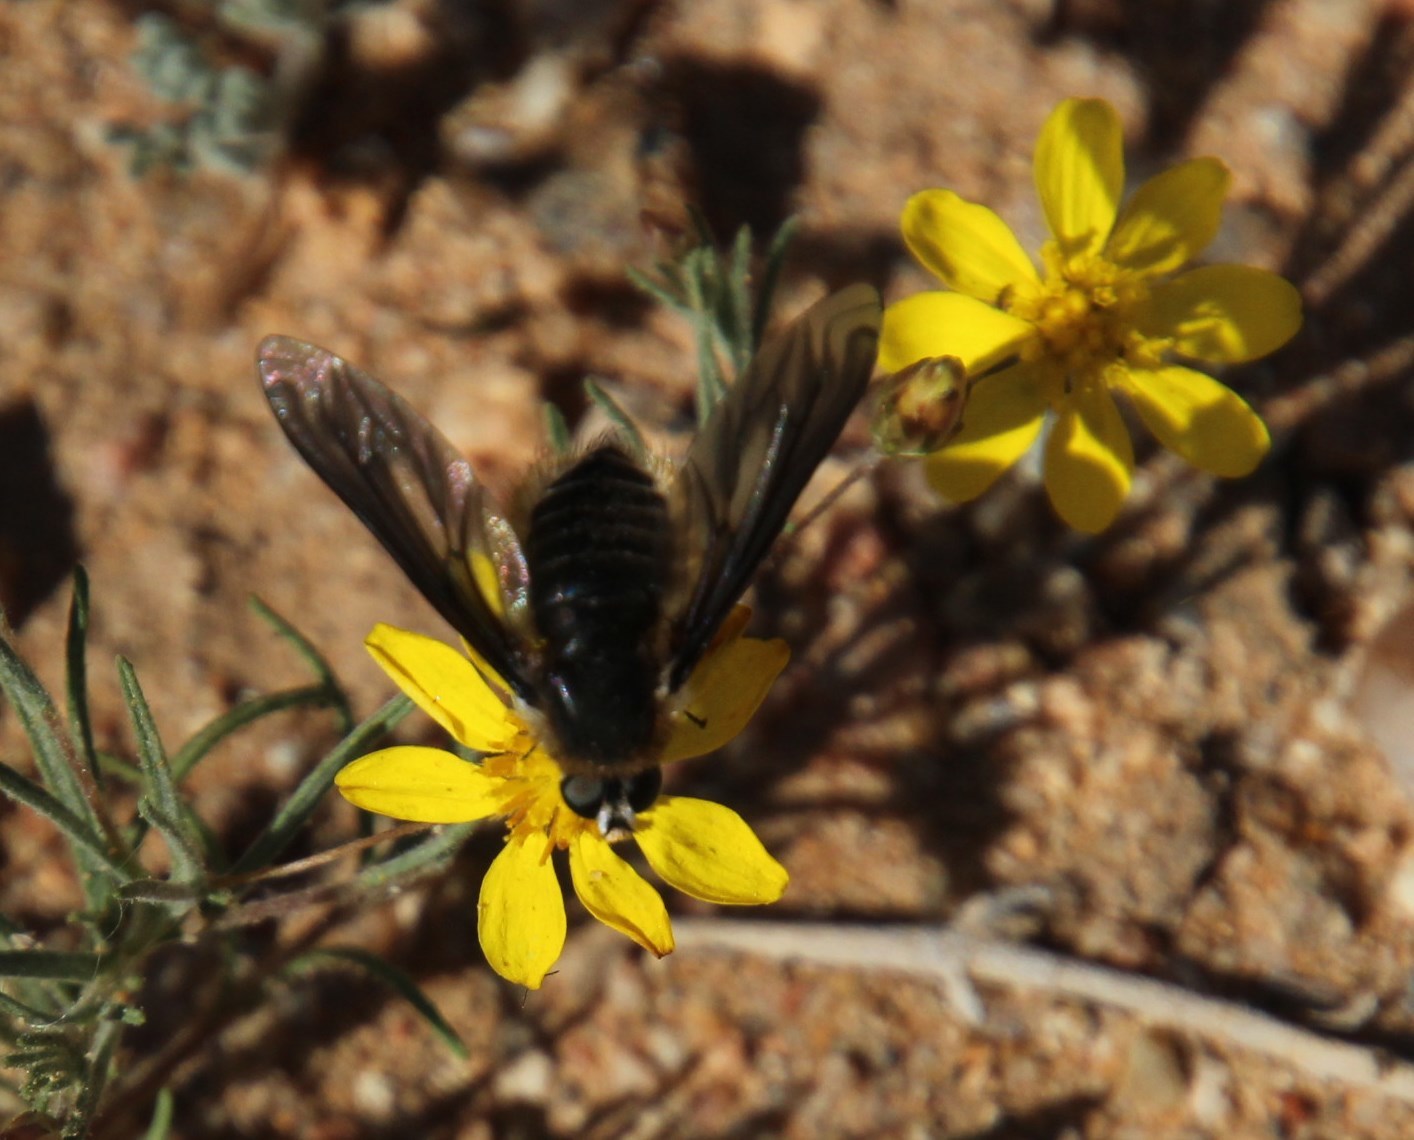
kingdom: Plantae
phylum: Tracheophyta
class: Magnoliopsida
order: Asterales
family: Asteraceae
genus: Leysera
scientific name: Leysera tenella
